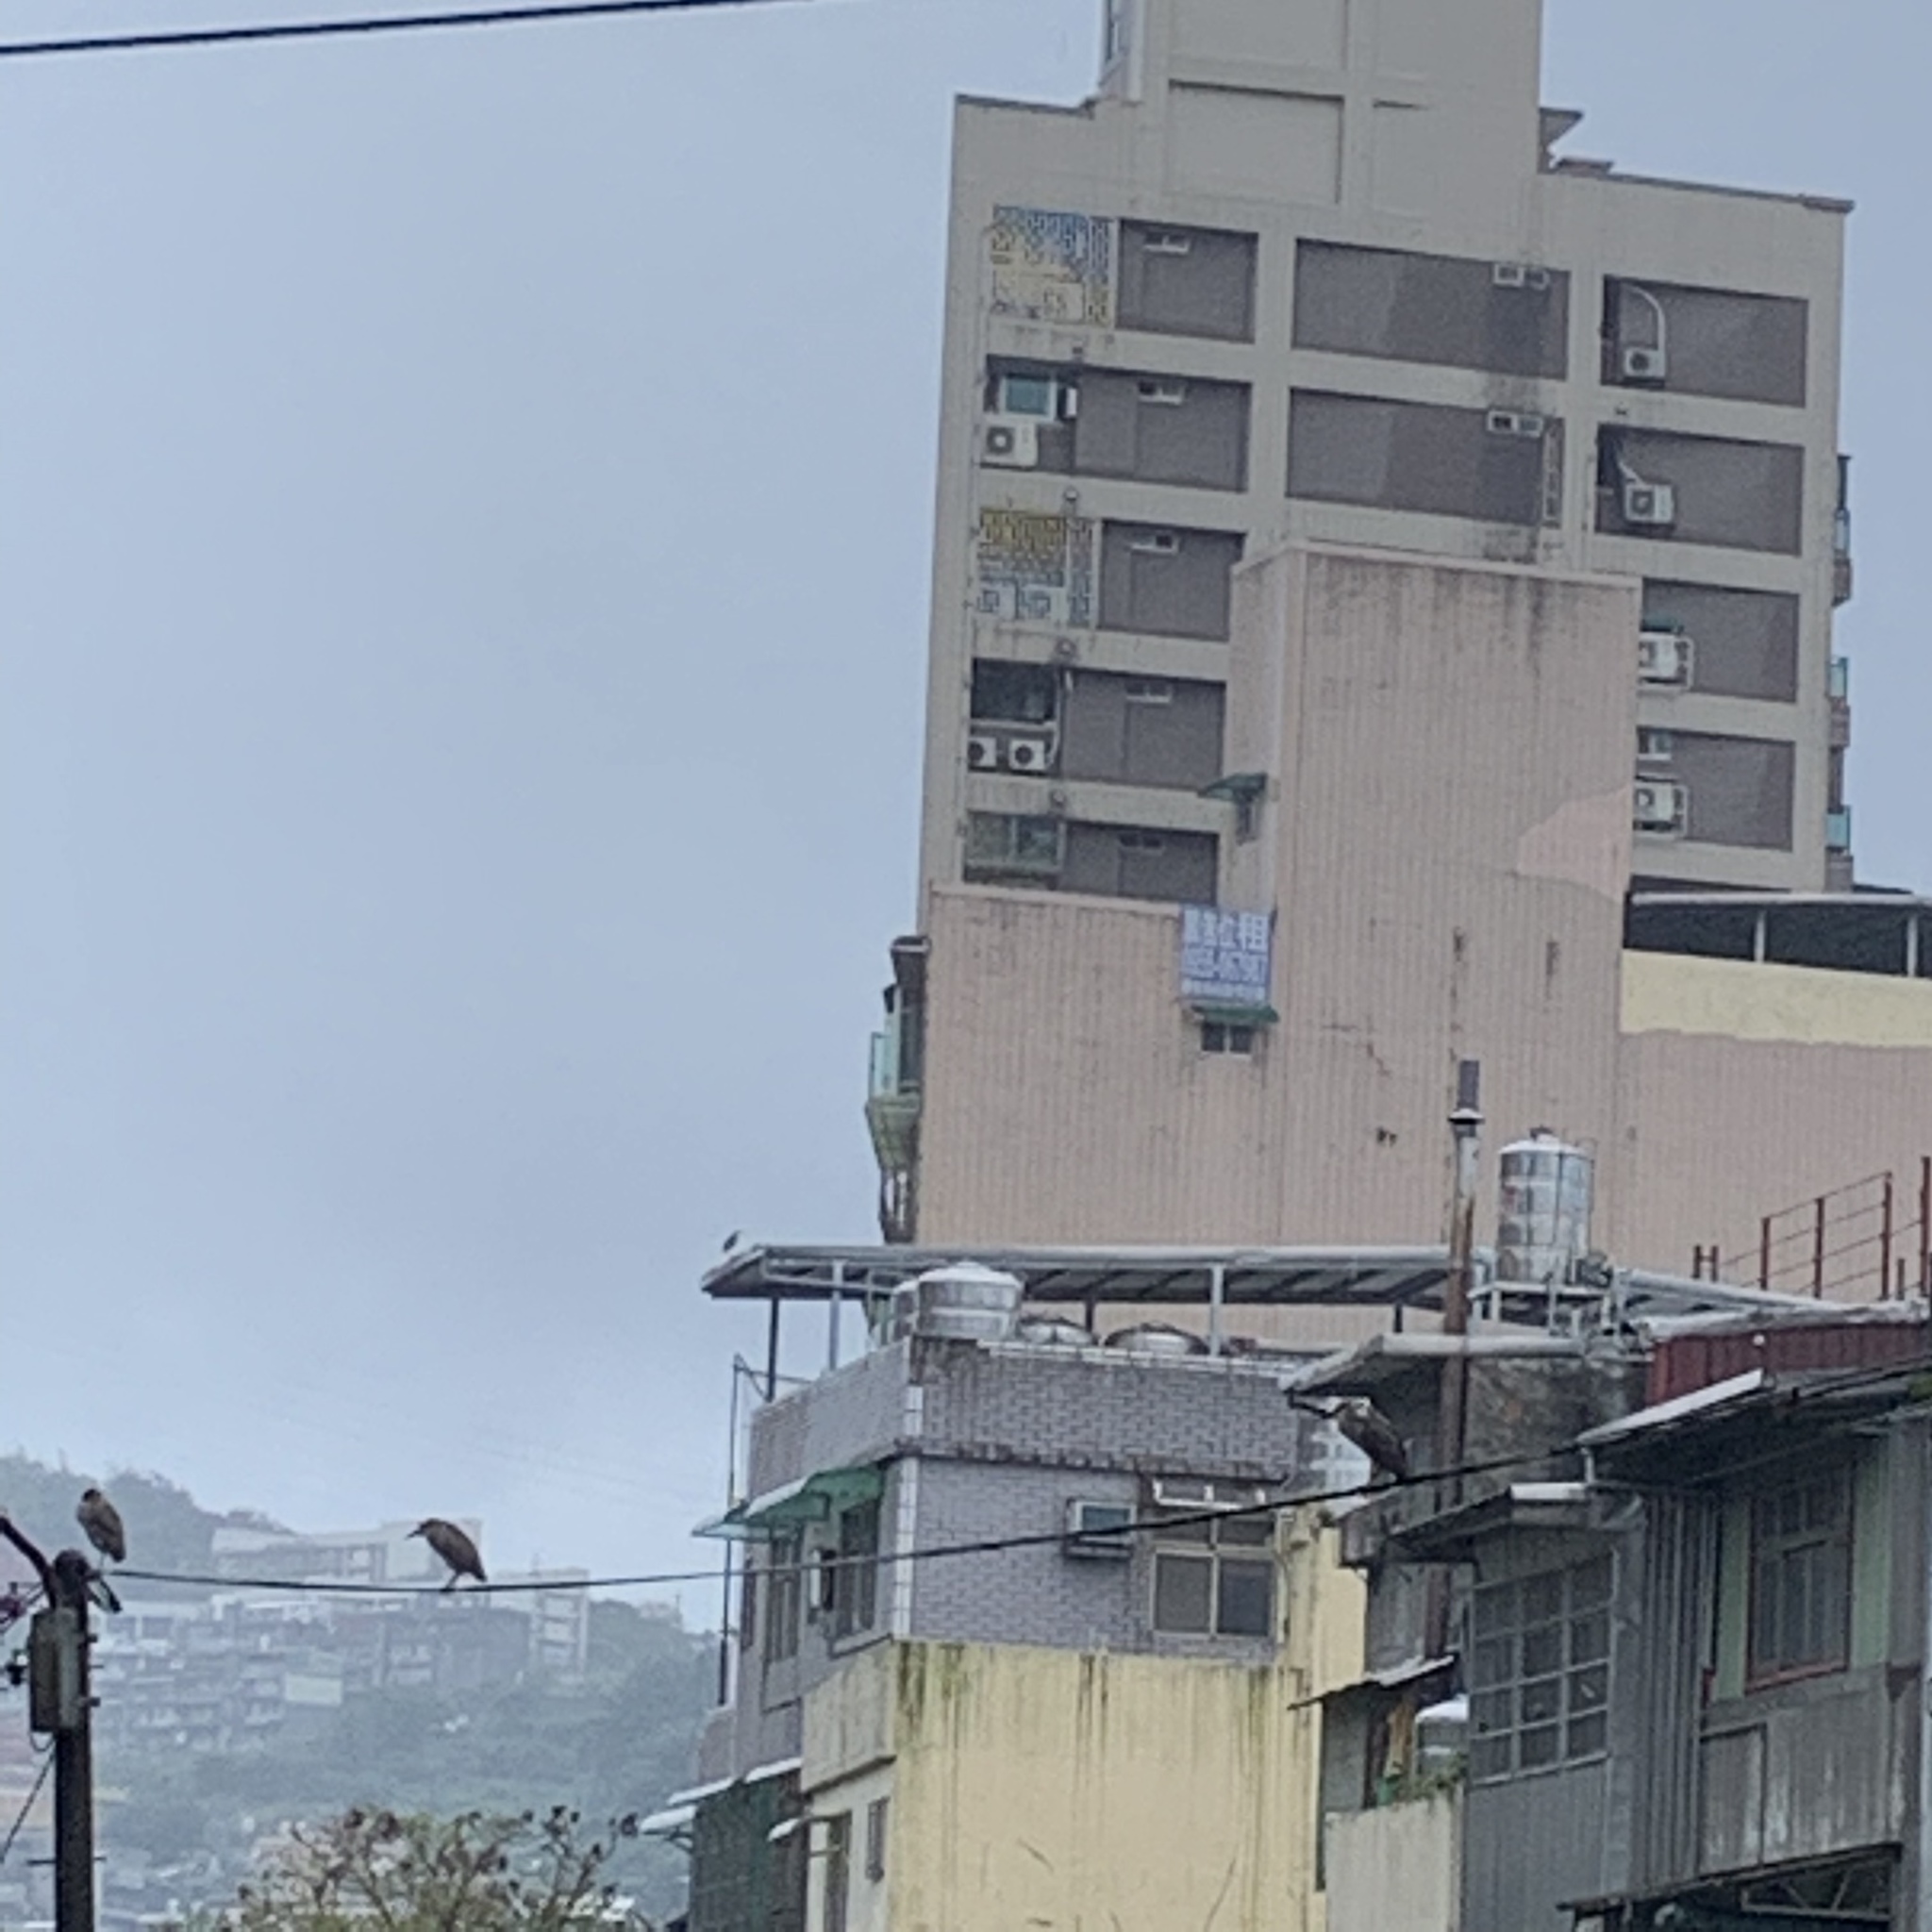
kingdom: Animalia
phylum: Chordata
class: Aves
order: Pelecaniformes
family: Ardeidae
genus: Nycticorax
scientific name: Nycticorax nycticorax
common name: Black-crowned night heron
